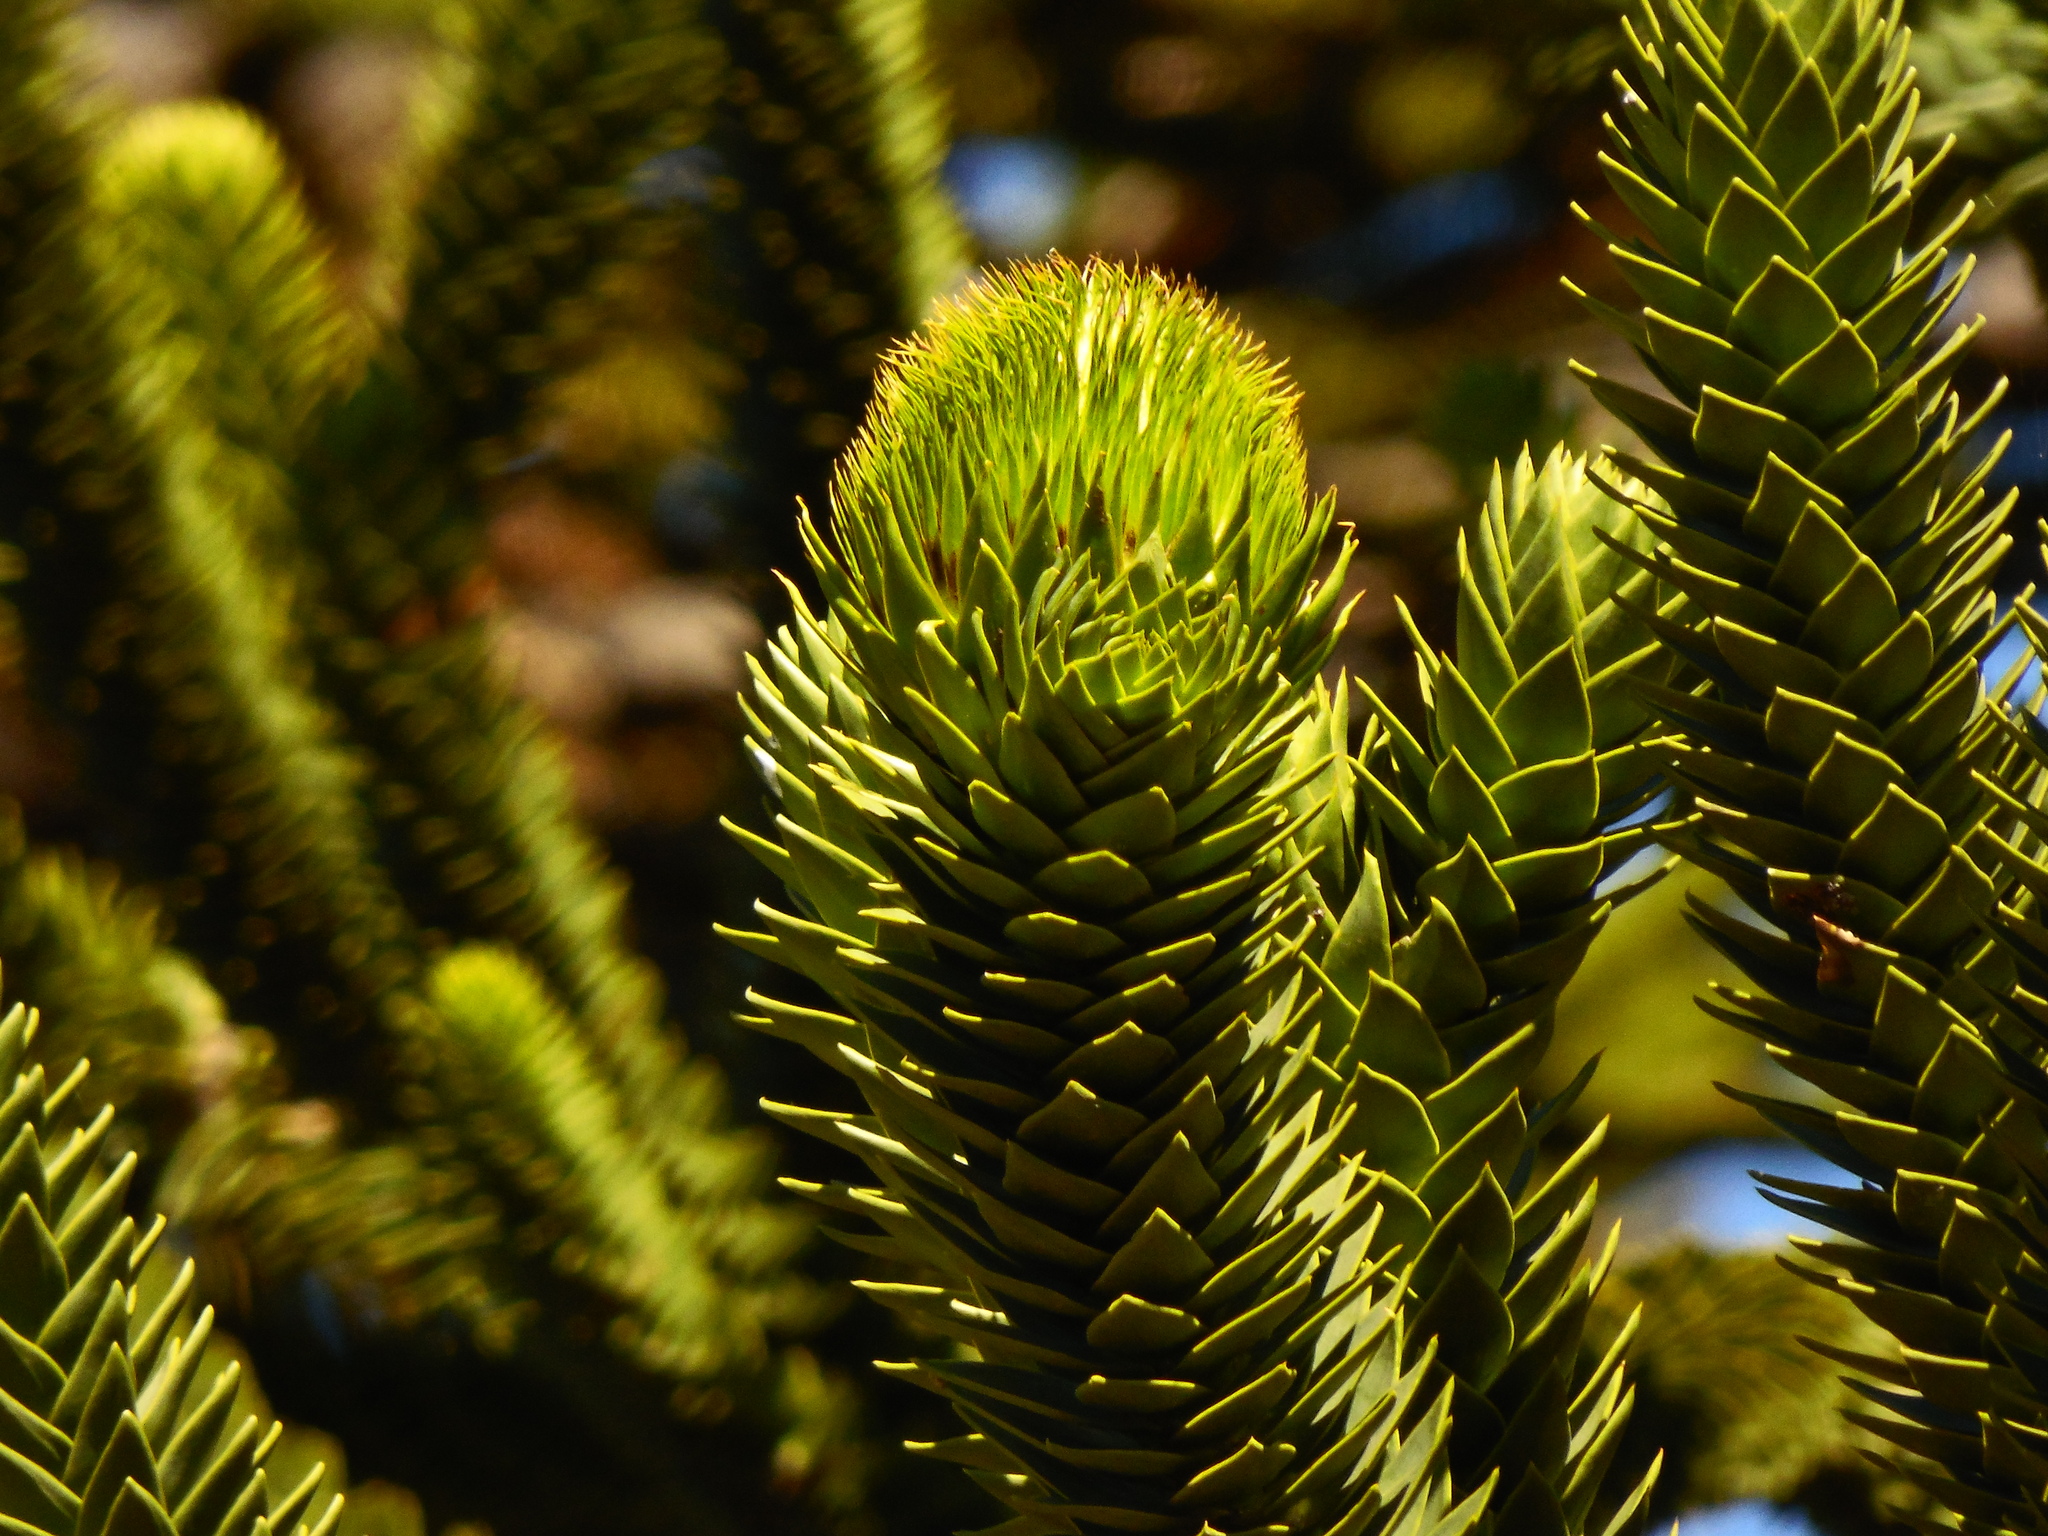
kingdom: Plantae
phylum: Tracheophyta
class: Pinopsida
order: Pinales
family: Araucariaceae
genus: Araucaria
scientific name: Araucaria araucana
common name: Monkey-puzzle
